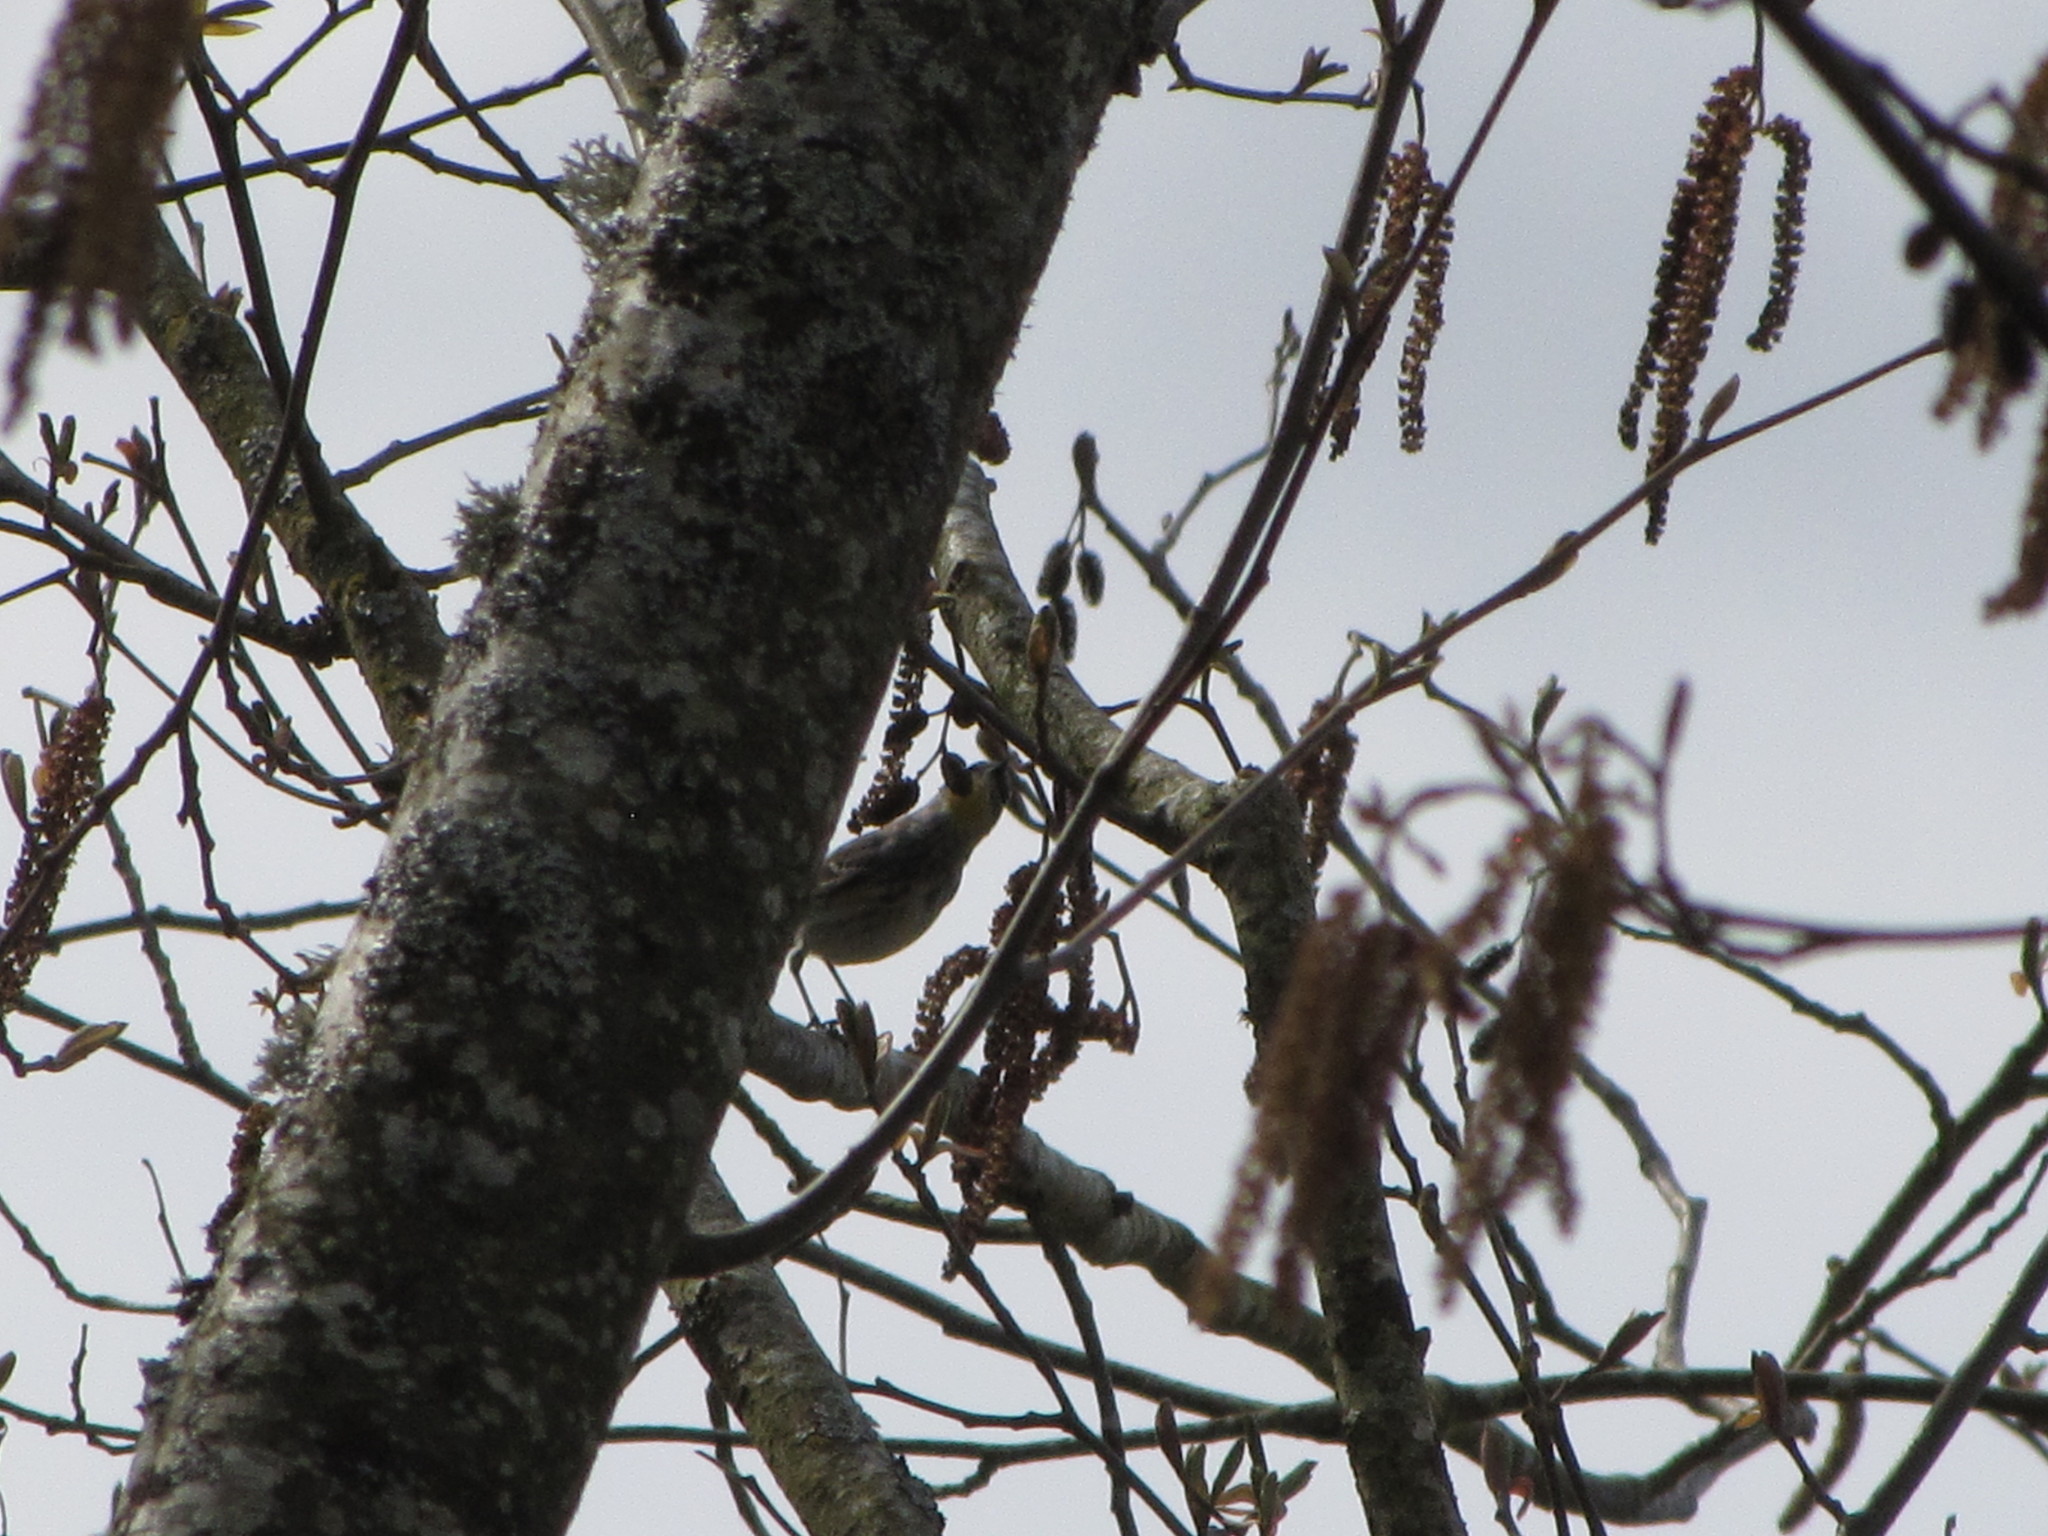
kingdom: Animalia
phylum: Chordata
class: Aves
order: Passeriformes
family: Parulidae
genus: Setophaga
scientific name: Setophaga auduboni
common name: Audubon's warbler
